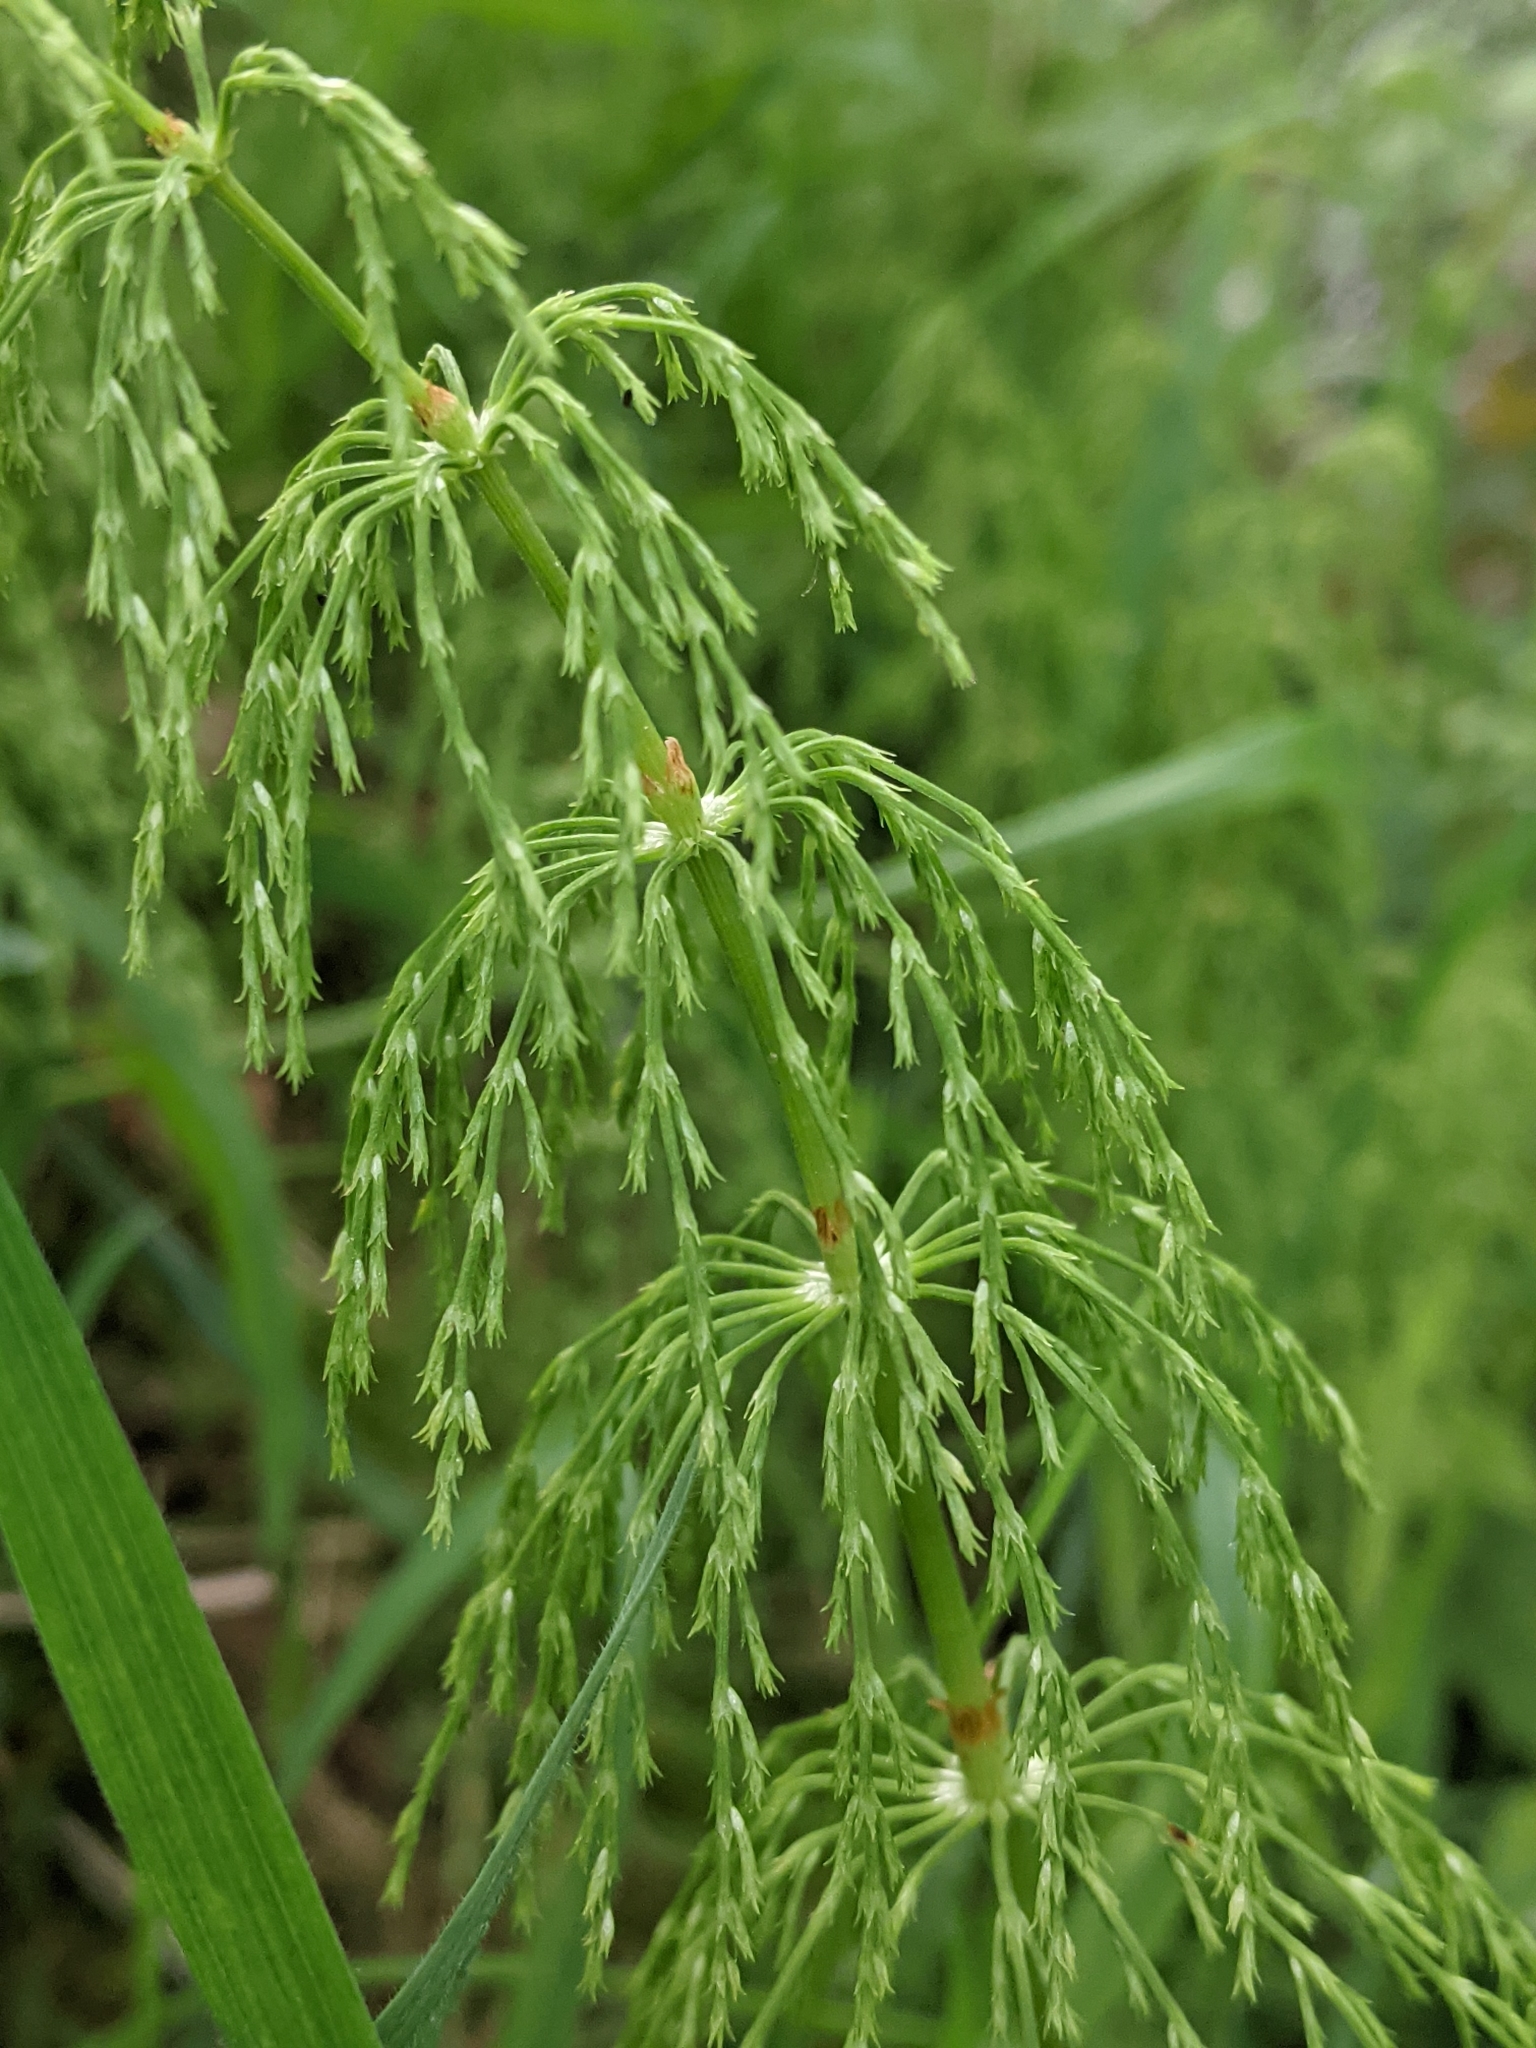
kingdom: Plantae
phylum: Tracheophyta
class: Polypodiopsida
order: Equisetales
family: Equisetaceae
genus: Equisetum
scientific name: Equisetum sylvaticum
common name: Wood horsetail
